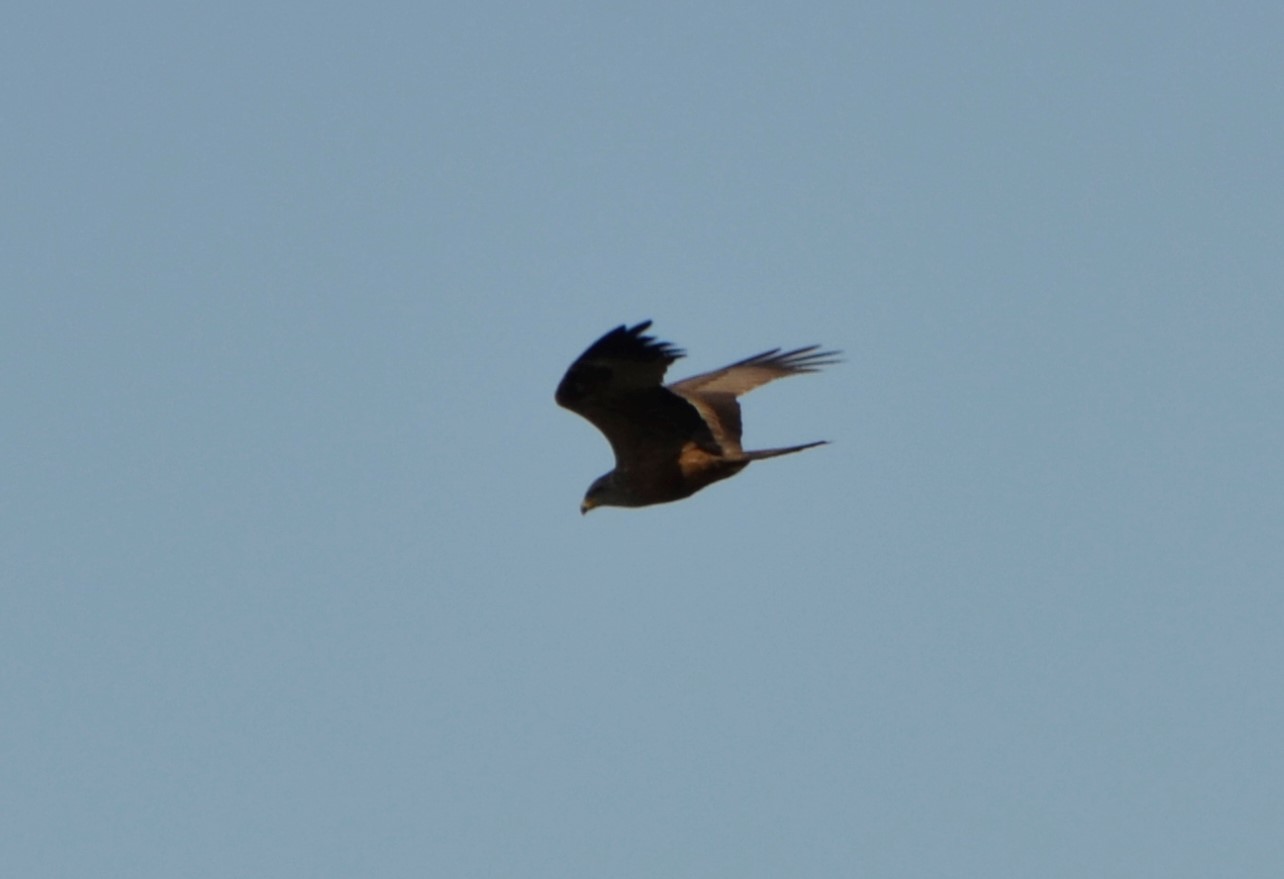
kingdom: Animalia
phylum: Chordata
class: Aves
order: Accipitriformes
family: Accipitridae
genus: Milvus
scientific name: Milvus migrans
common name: Black kite
